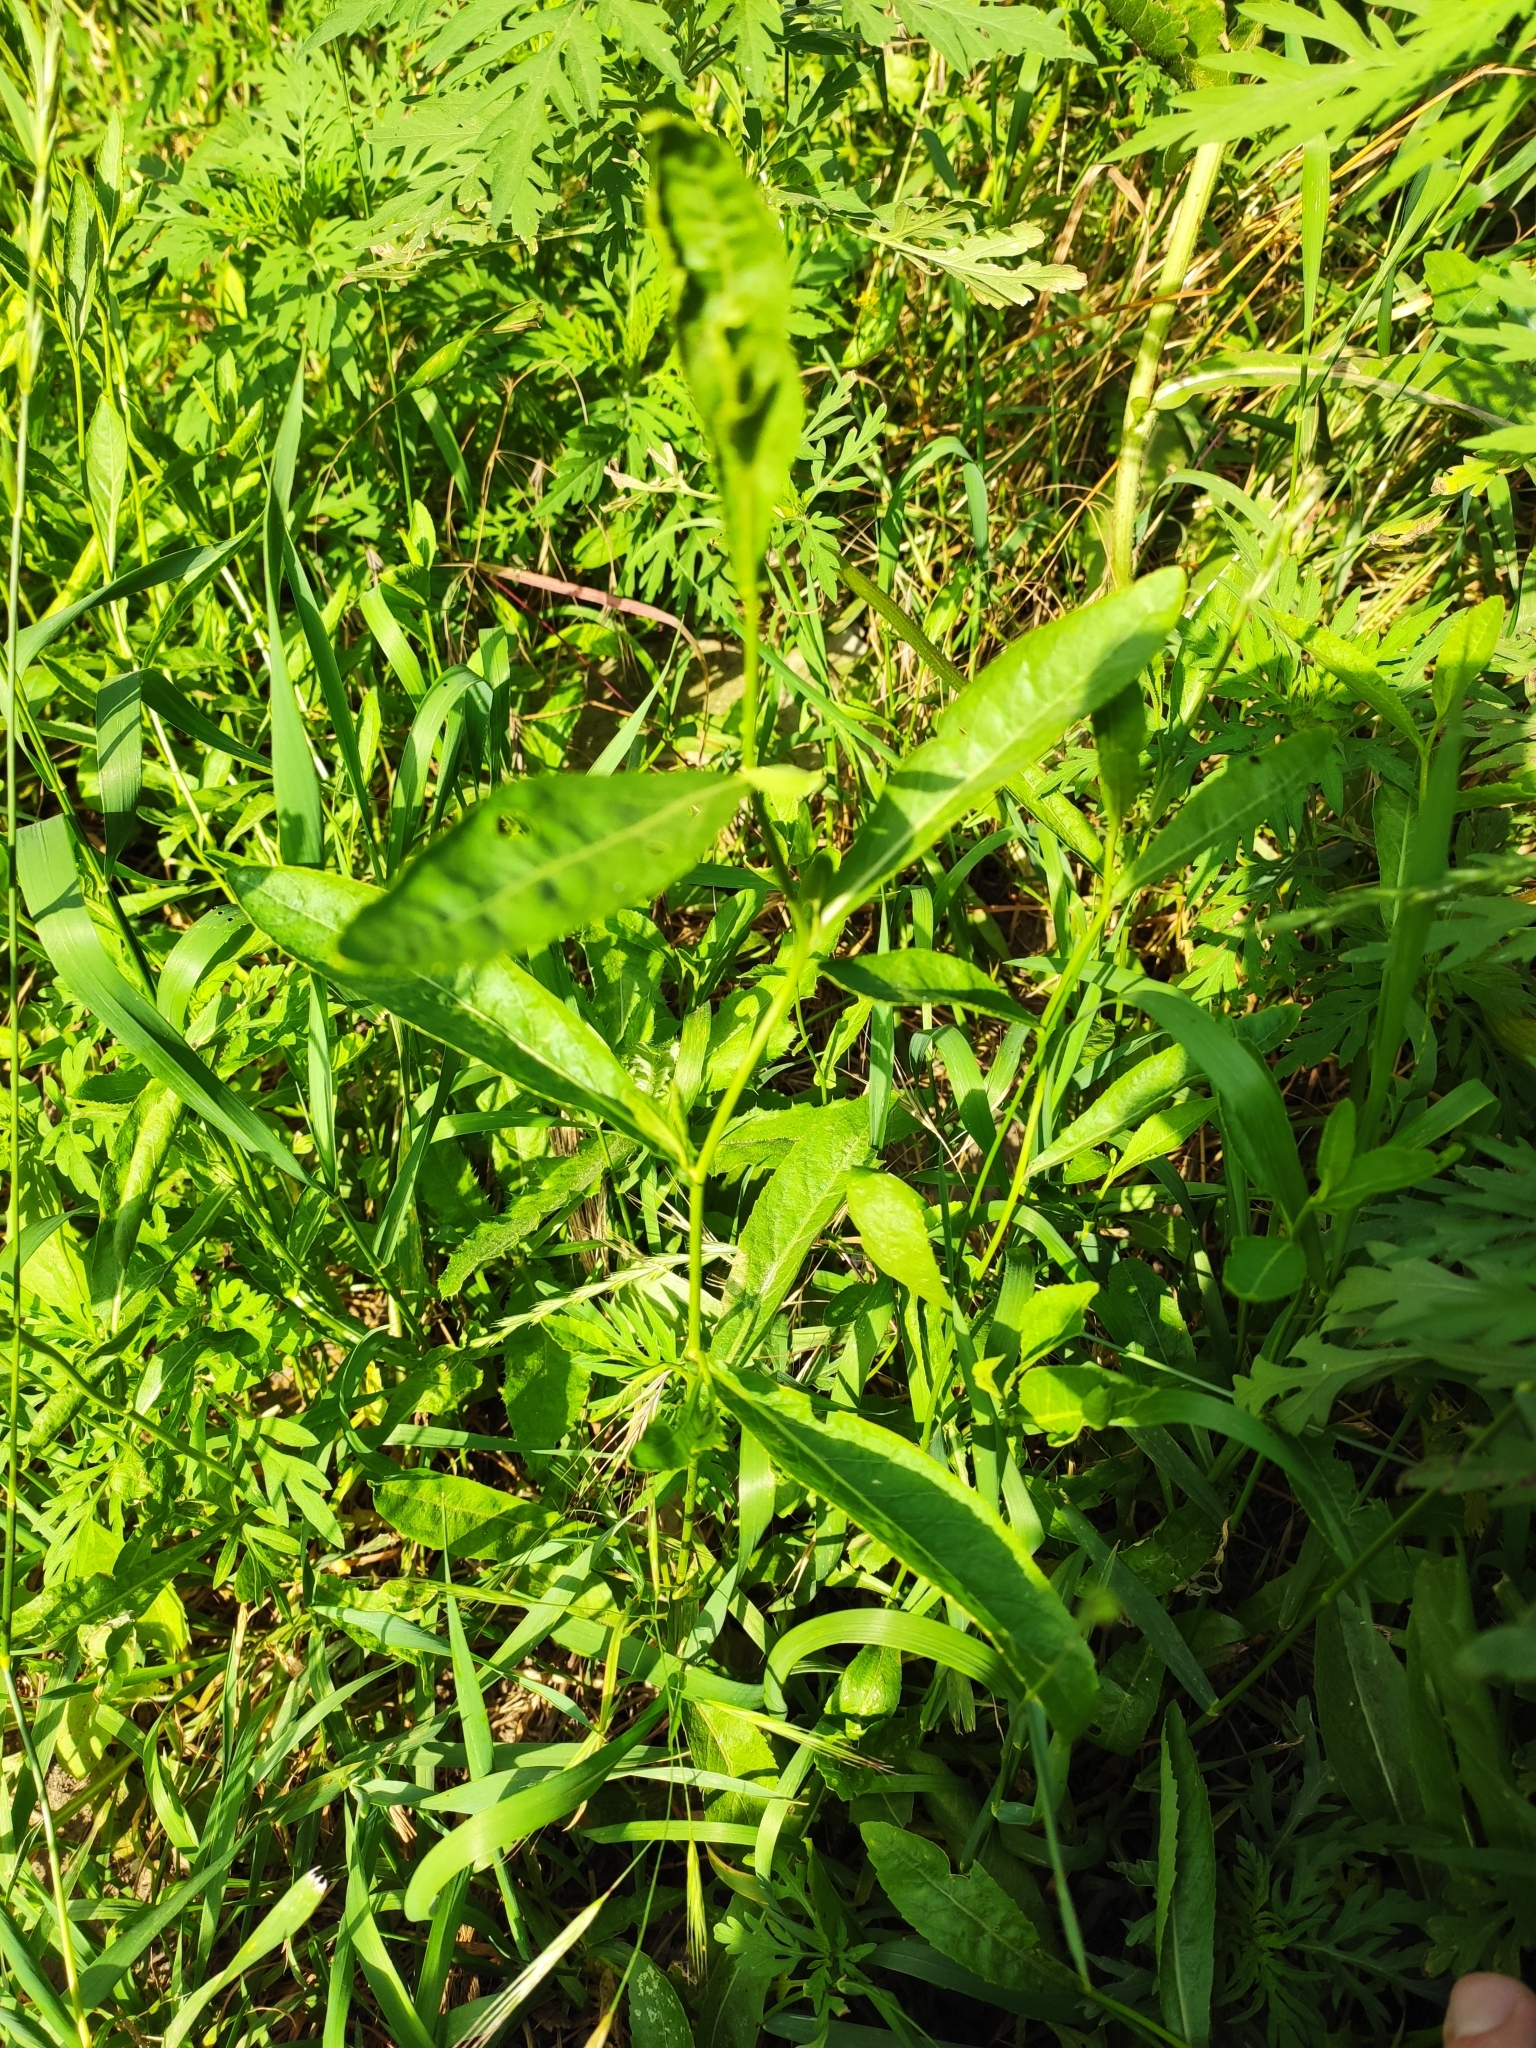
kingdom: Plantae
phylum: Tracheophyta
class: Magnoliopsida
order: Brassicales
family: Brassicaceae
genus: Rorippa
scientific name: Rorippa austriaca
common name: Austrian yellow-cress
